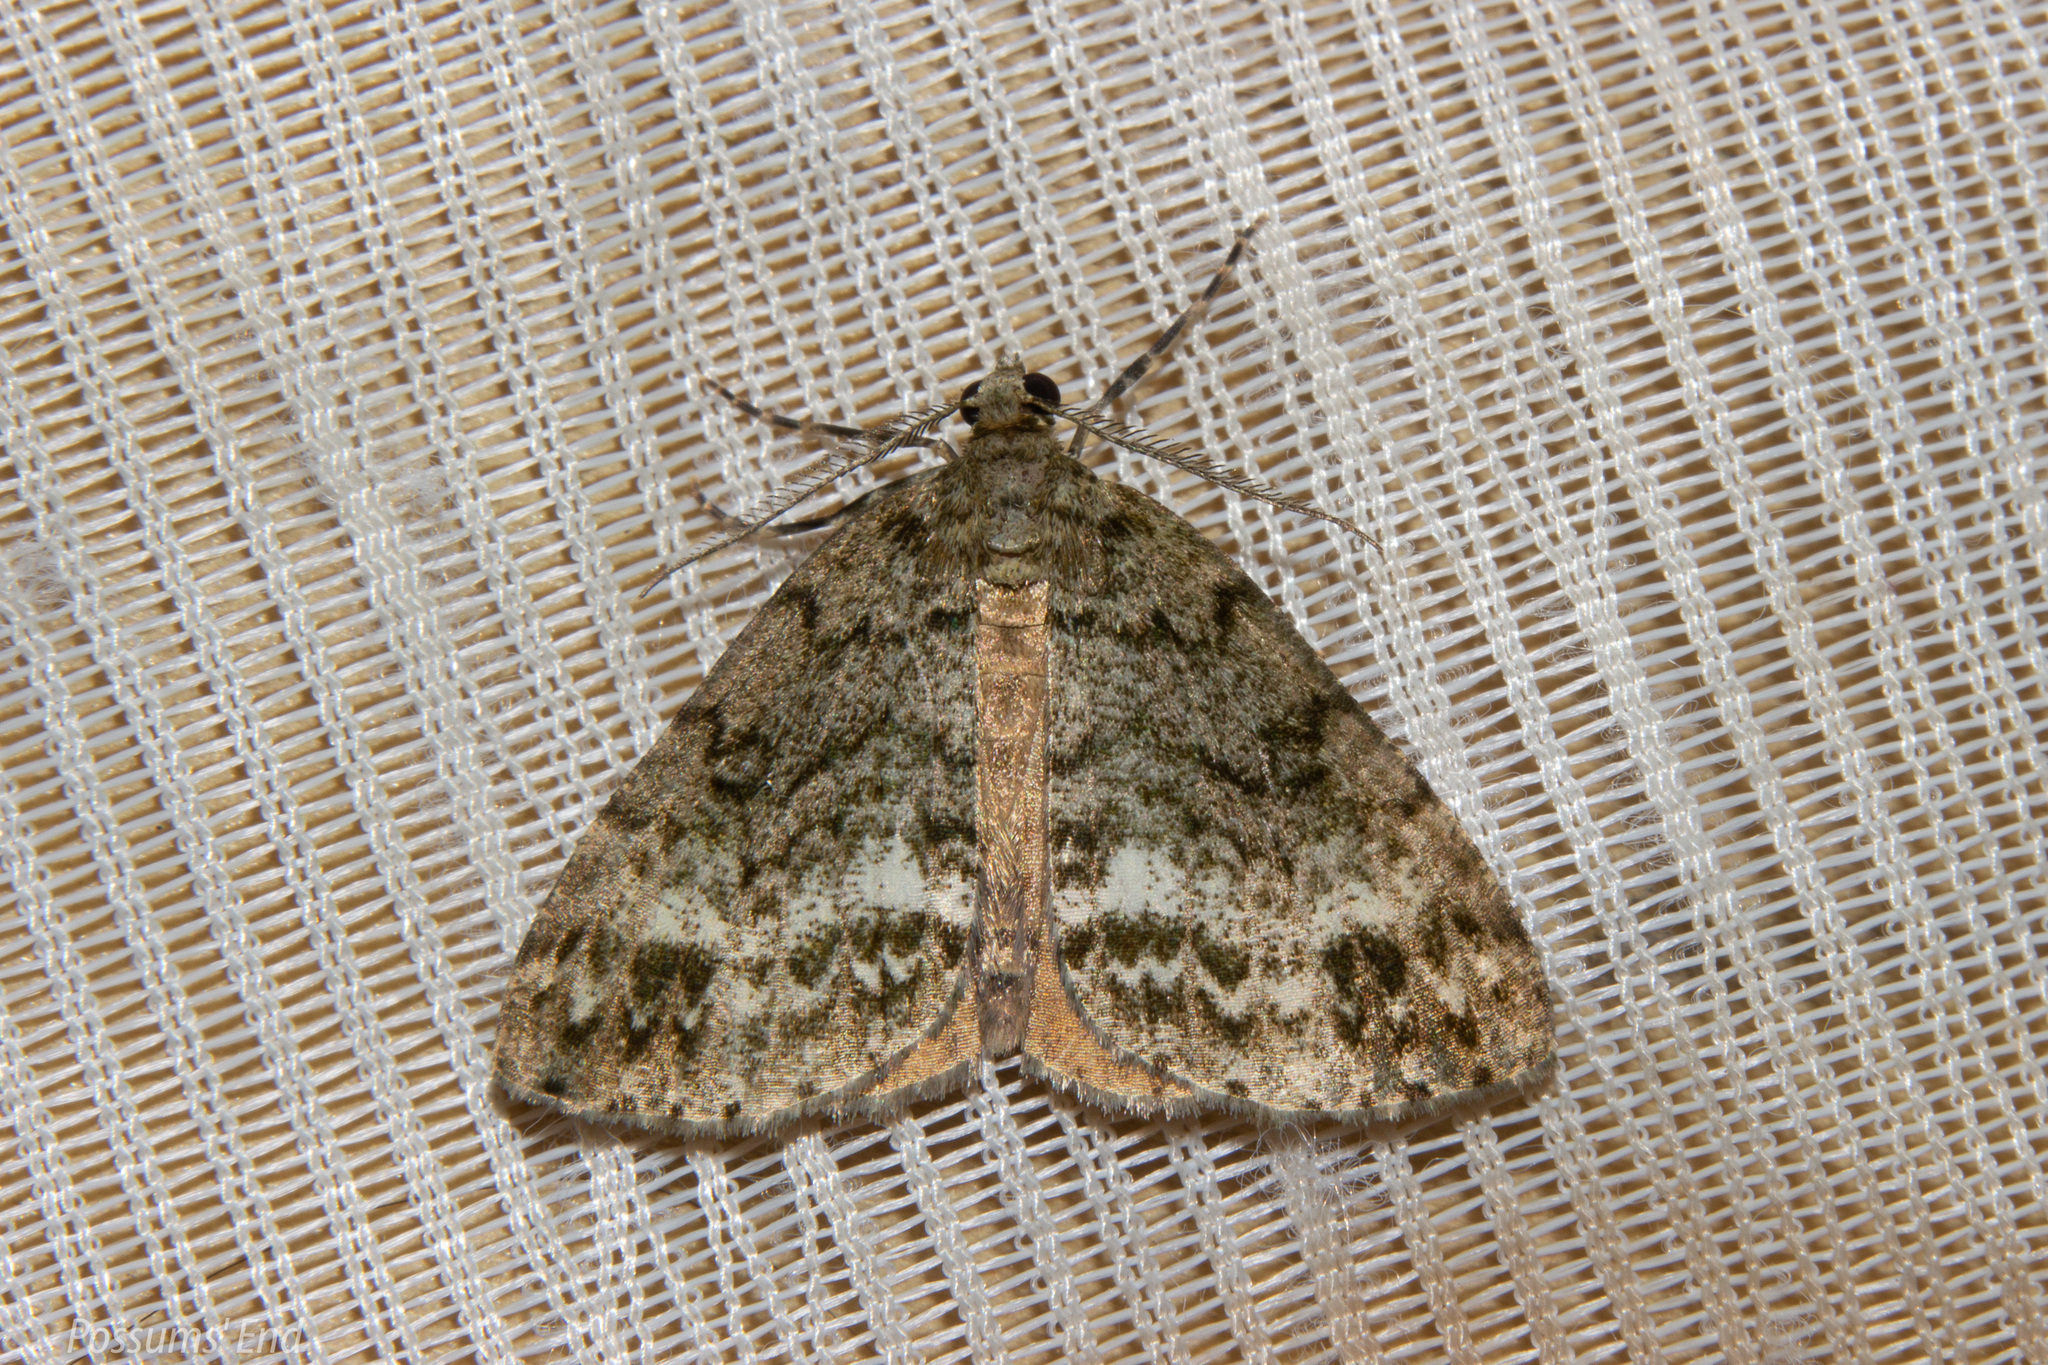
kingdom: Animalia
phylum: Arthropoda
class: Insecta
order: Lepidoptera
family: Geometridae
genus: Pseudocoremia
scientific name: Pseudocoremia indistincta
